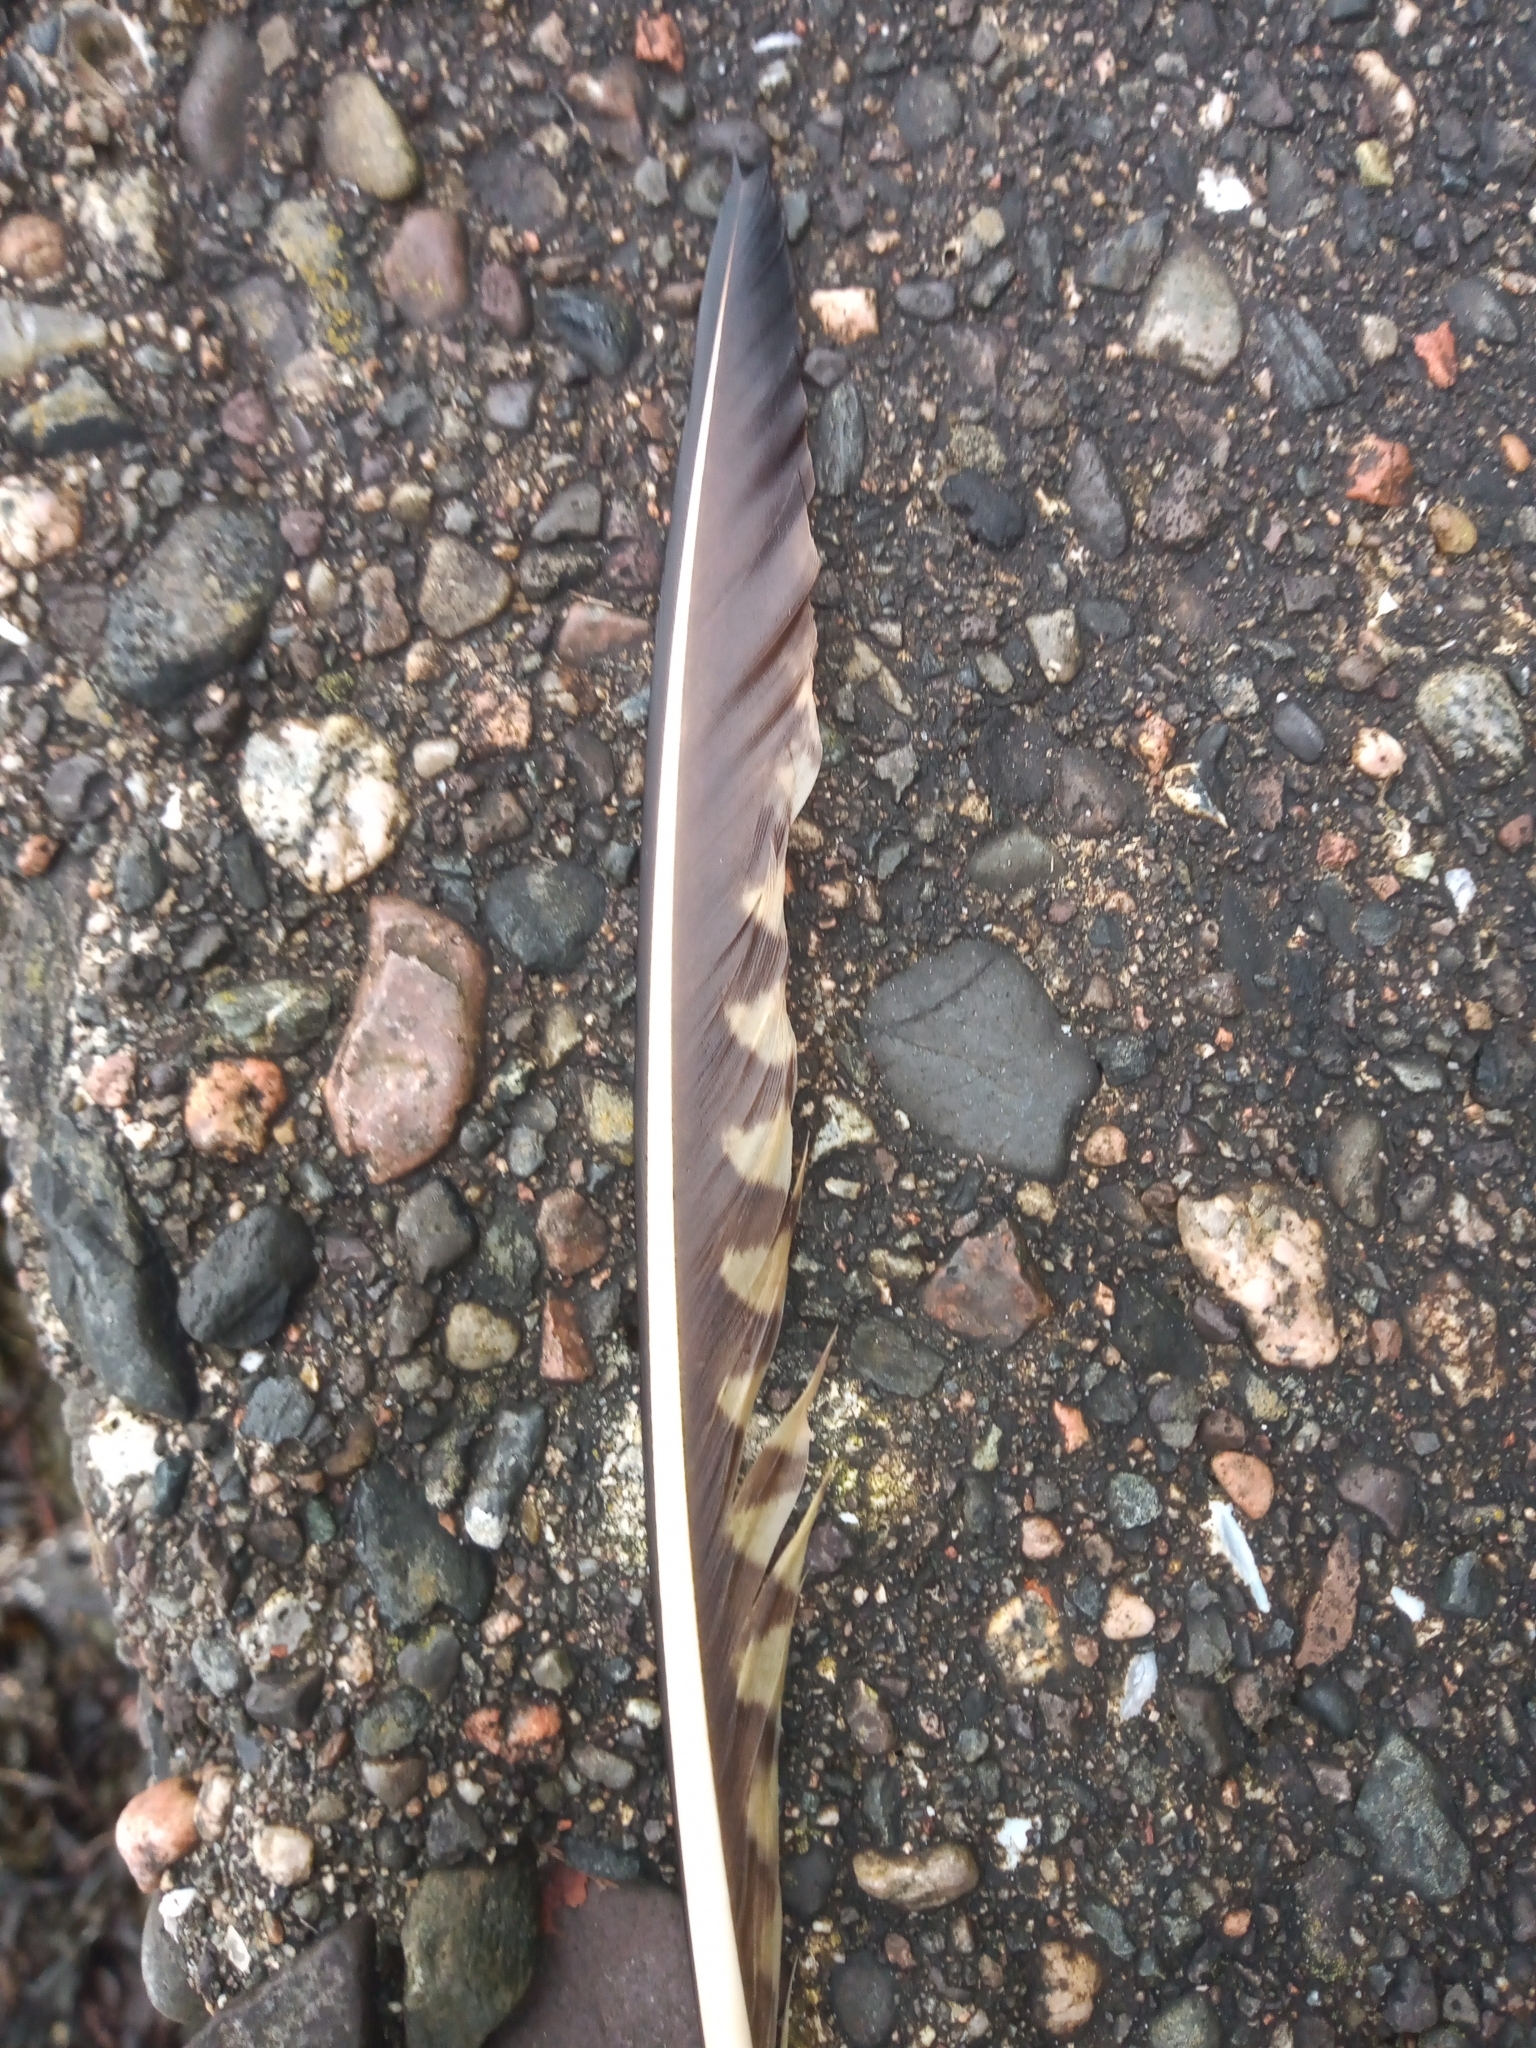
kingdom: Animalia
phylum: Chordata
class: Aves
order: Charadriiformes
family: Scolopacidae
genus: Numenius
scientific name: Numenius arquata
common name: Eurasian curlew
